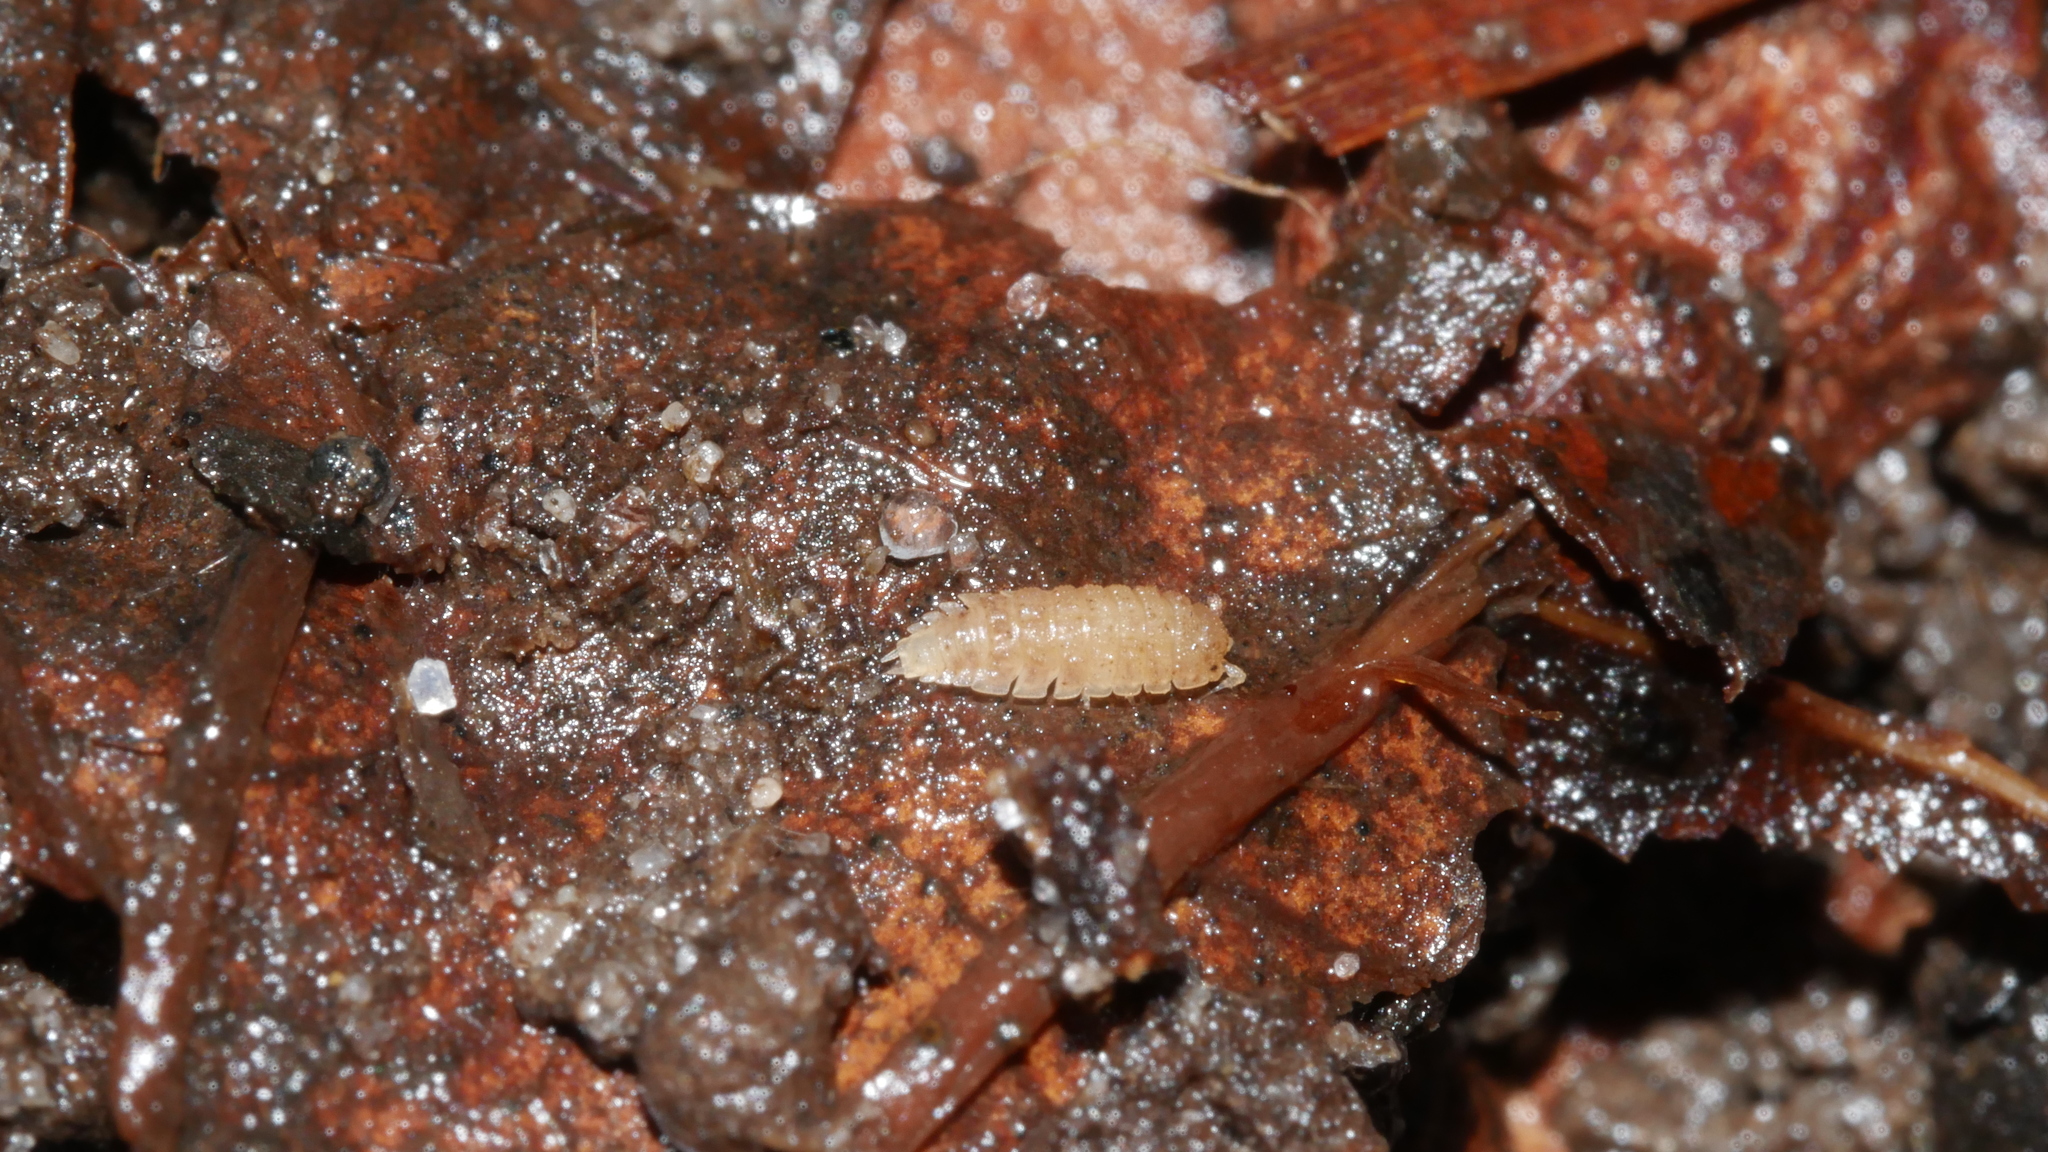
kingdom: Animalia
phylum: Arthropoda
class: Malacostraca
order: Isopoda
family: Trichoniscidae
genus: Haplophthalmus
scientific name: Haplophthalmus danicus
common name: Pillbug
